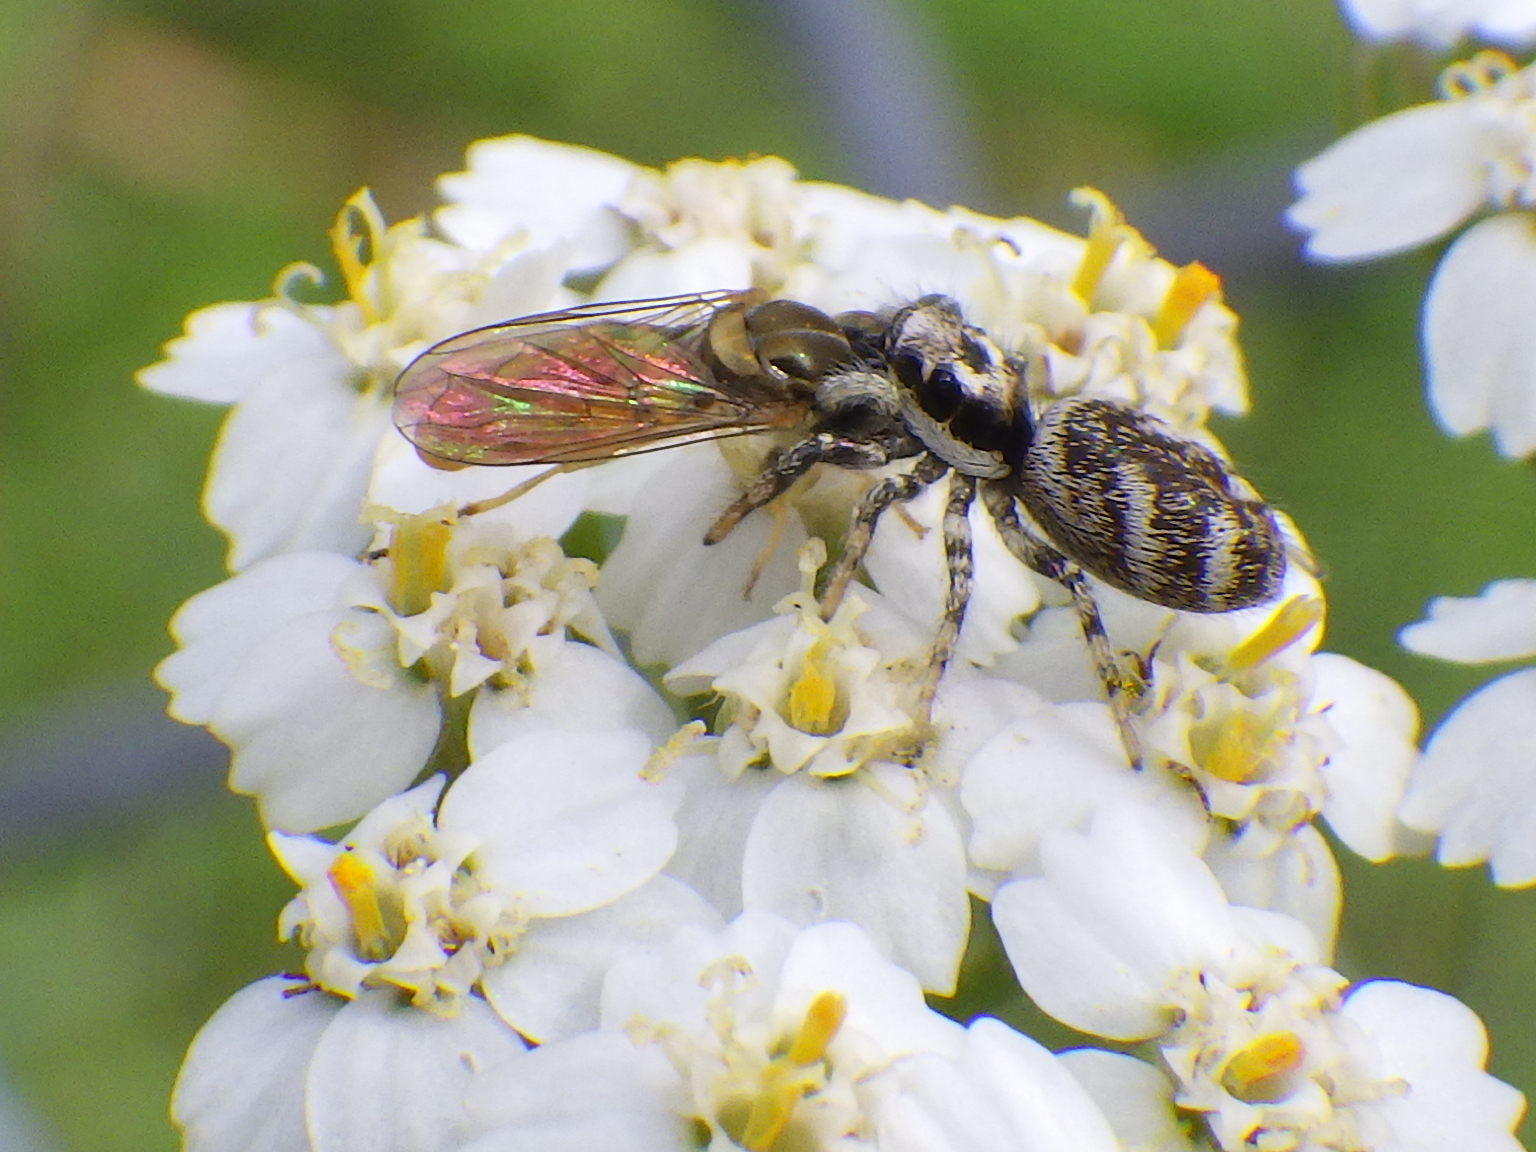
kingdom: Animalia
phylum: Arthropoda
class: Arachnida
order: Araneae
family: Salticidae
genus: Salticus
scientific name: Salticus scenicus
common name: Zebra jumper
